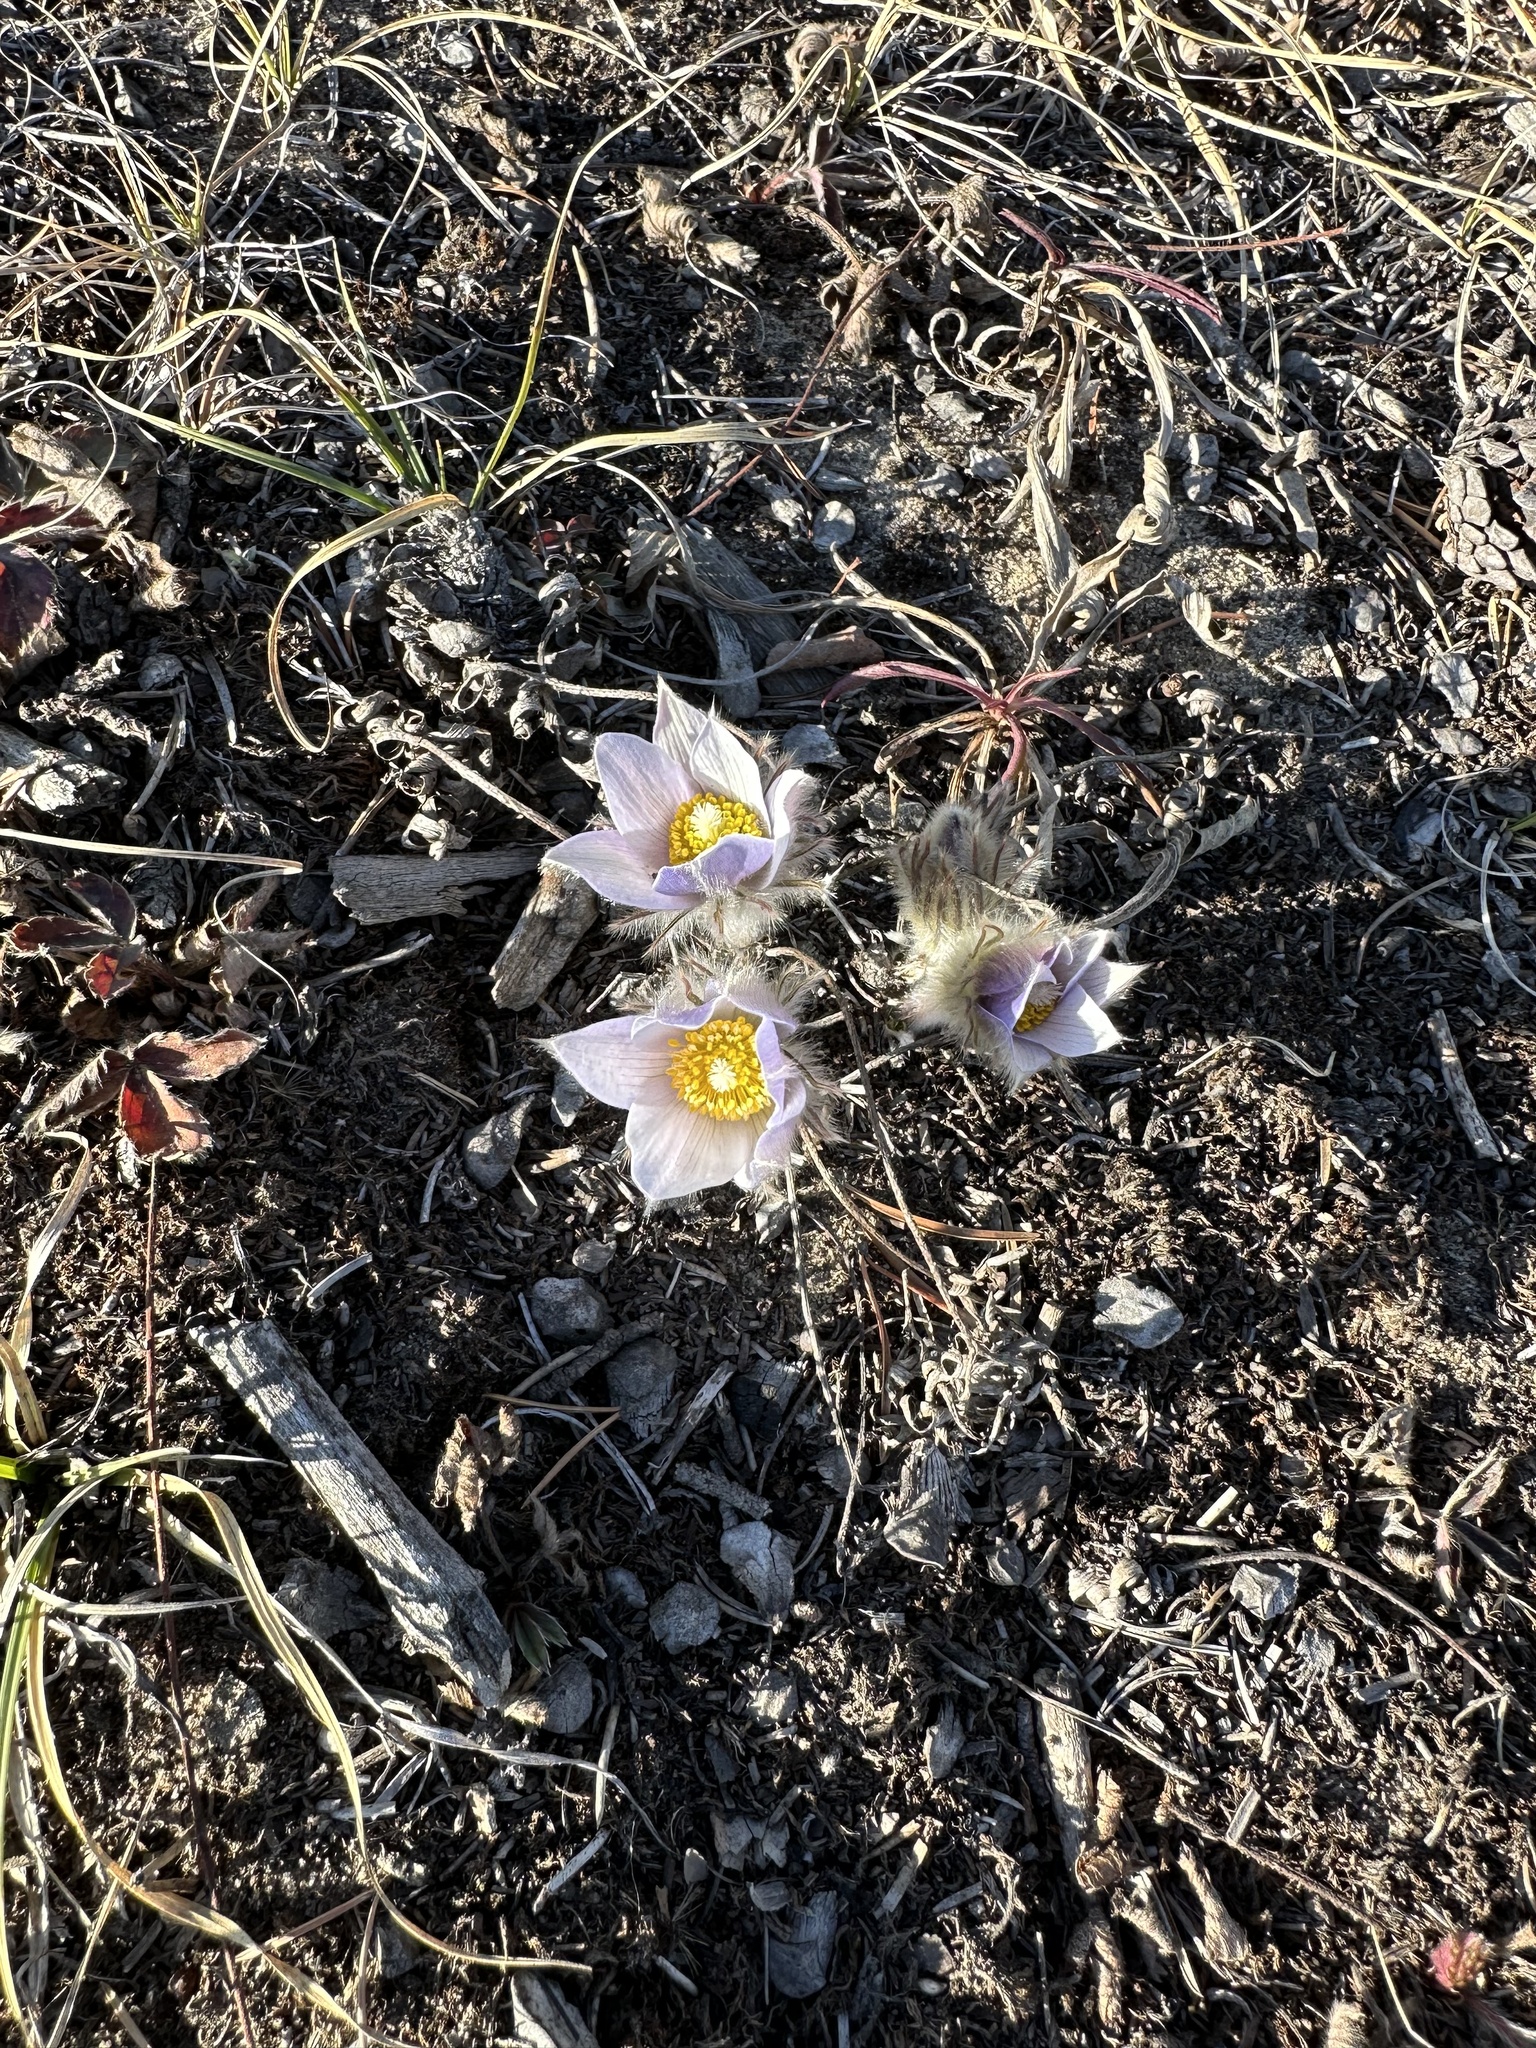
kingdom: Plantae
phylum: Tracheophyta
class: Magnoliopsida
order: Ranunculales
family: Ranunculaceae
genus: Pulsatilla
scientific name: Pulsatilla nuttalliana
